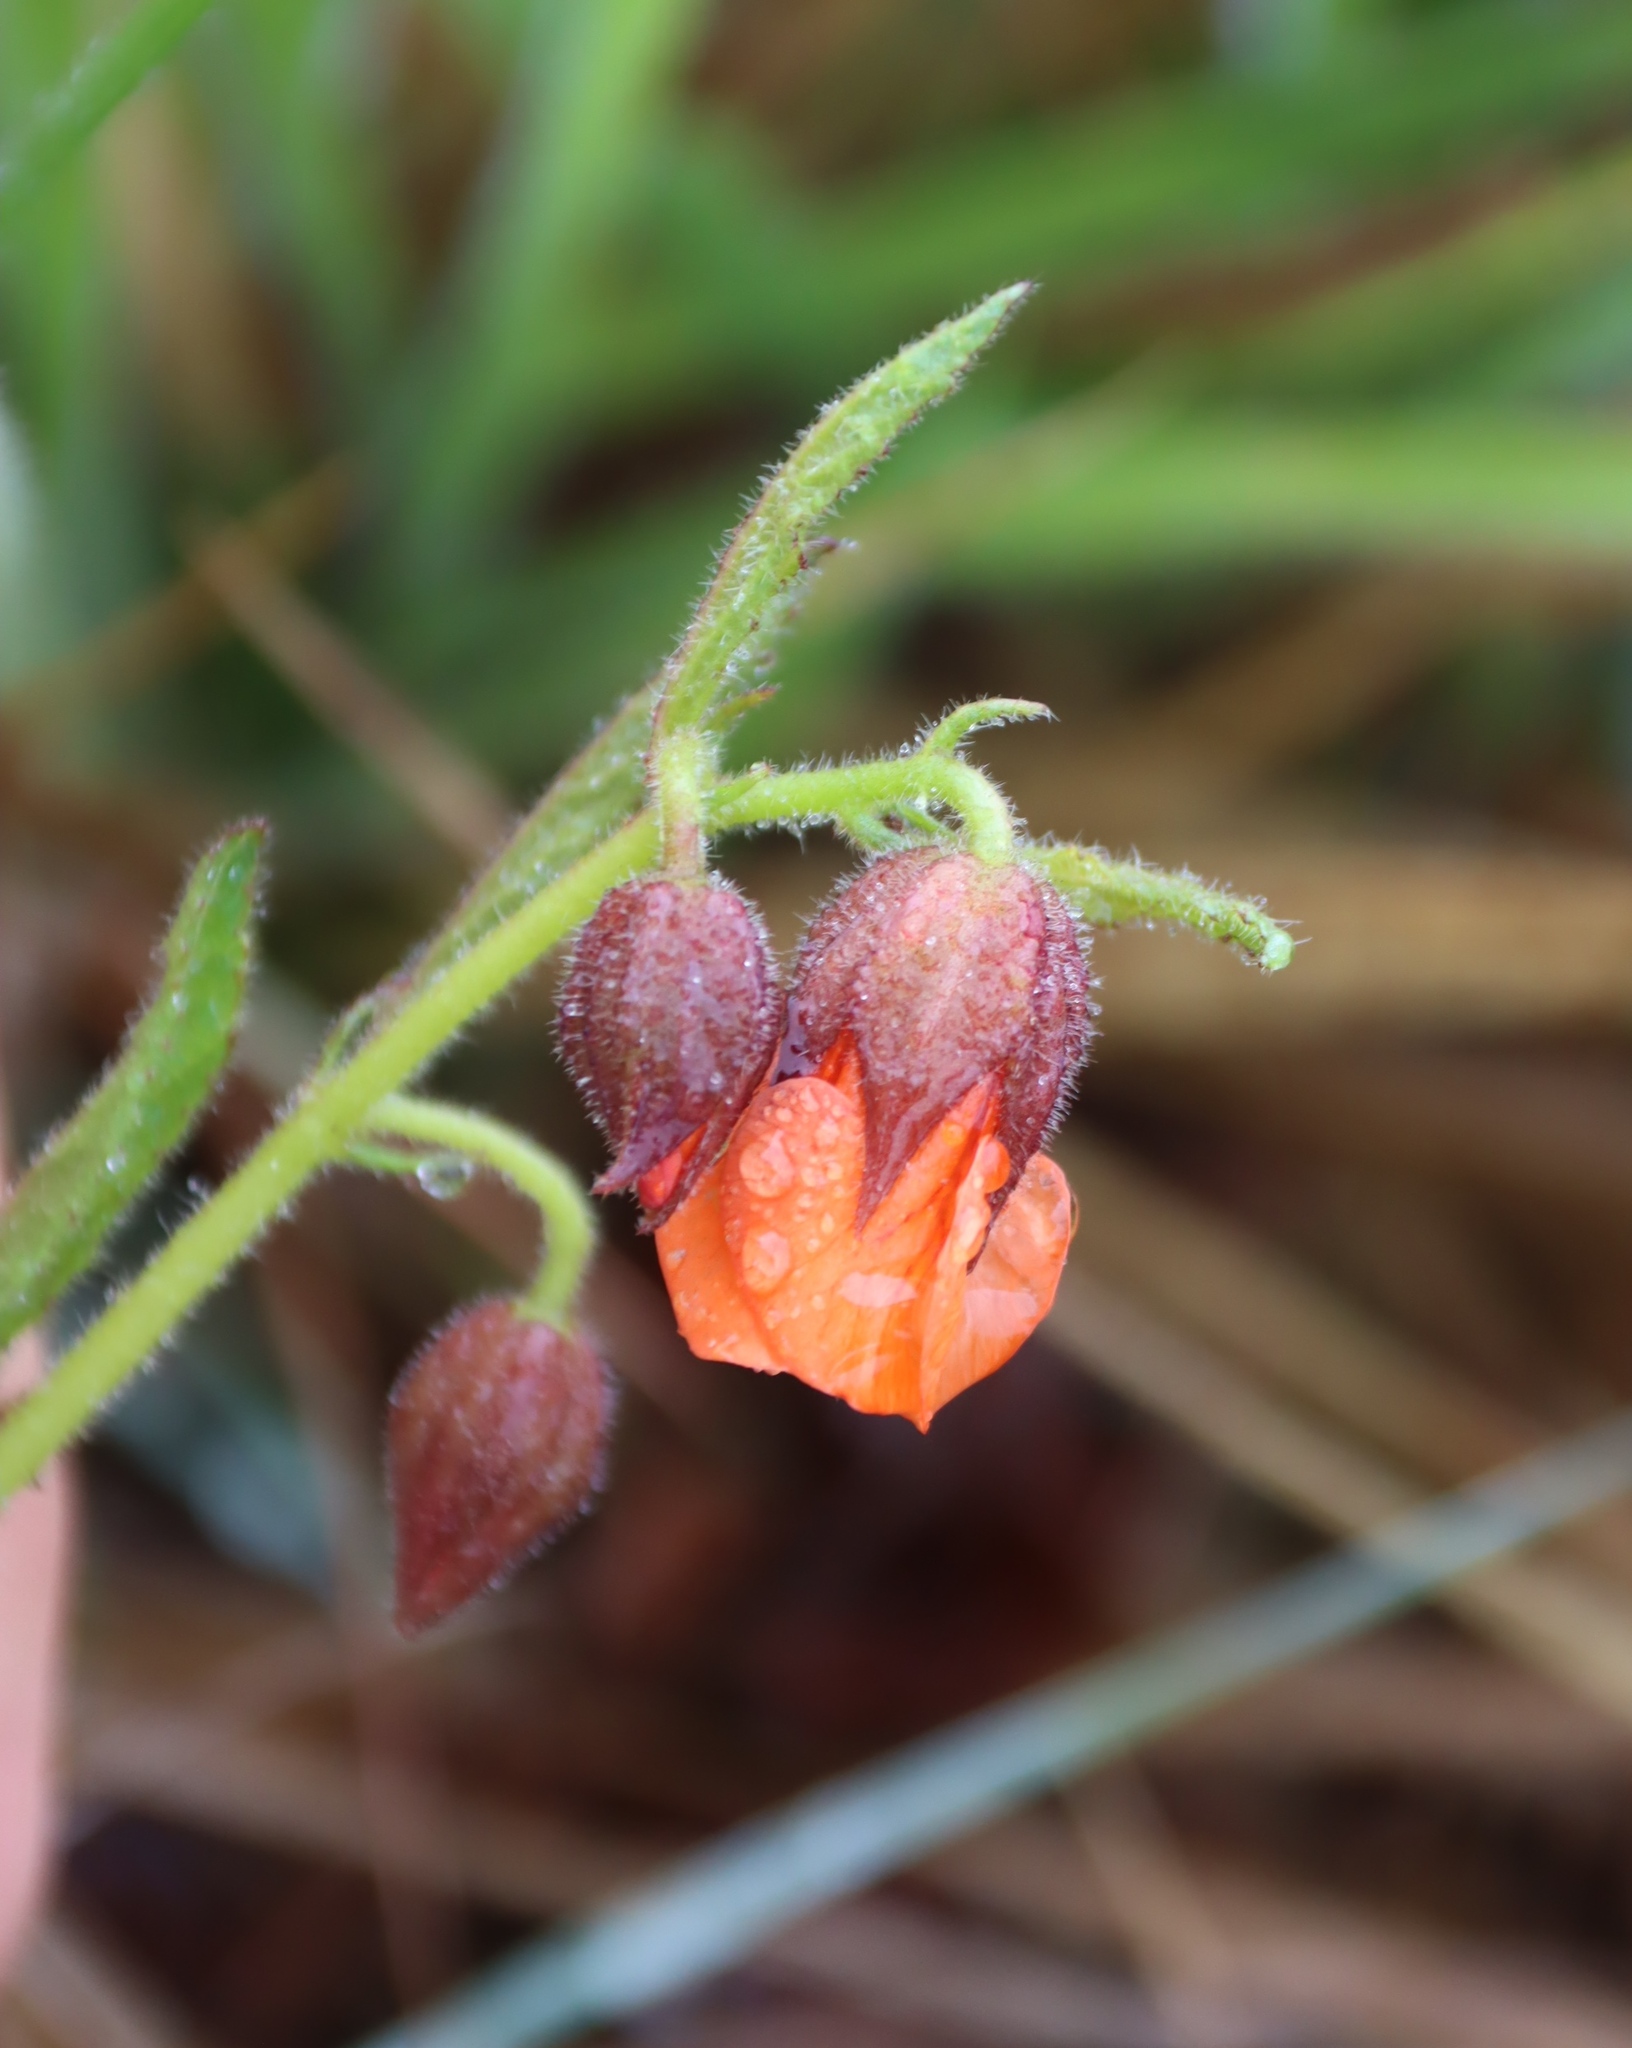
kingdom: Plantae
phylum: Tracheophyta
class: Magnoliopsida
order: Malvales
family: Malvaceae
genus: Hermannia
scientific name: Hermannia cristata
